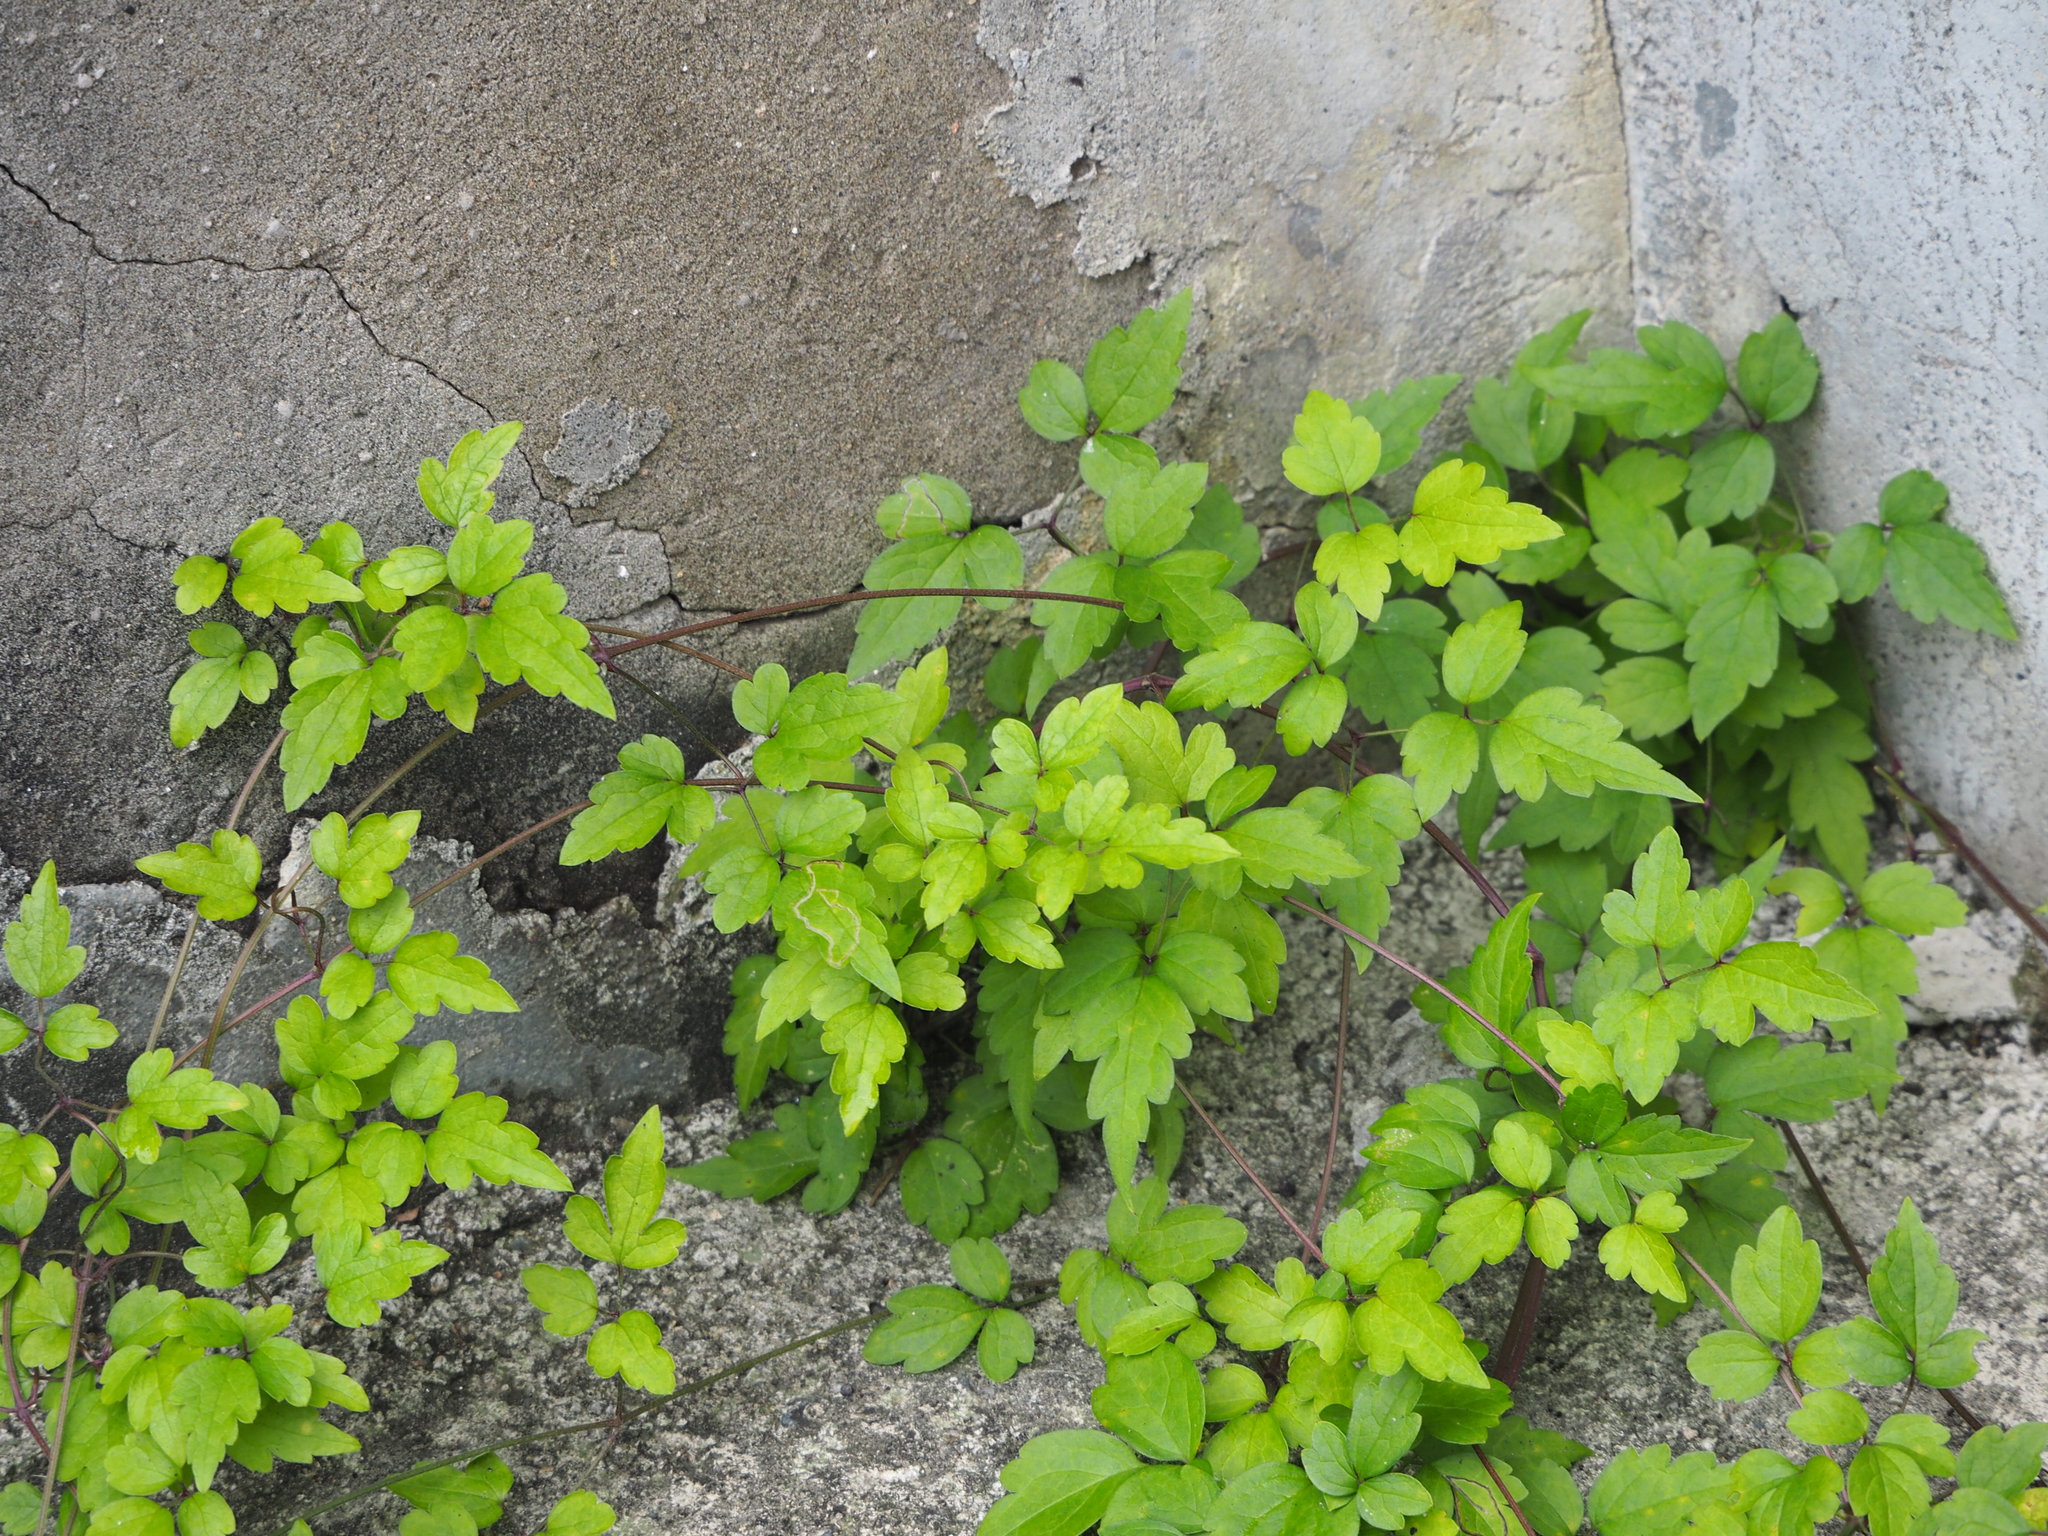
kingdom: Plantae
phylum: Tracheophyta
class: Magnoliopsida
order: Ranunculales
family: Ranunculaceae
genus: Clematis
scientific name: Clematis grata
